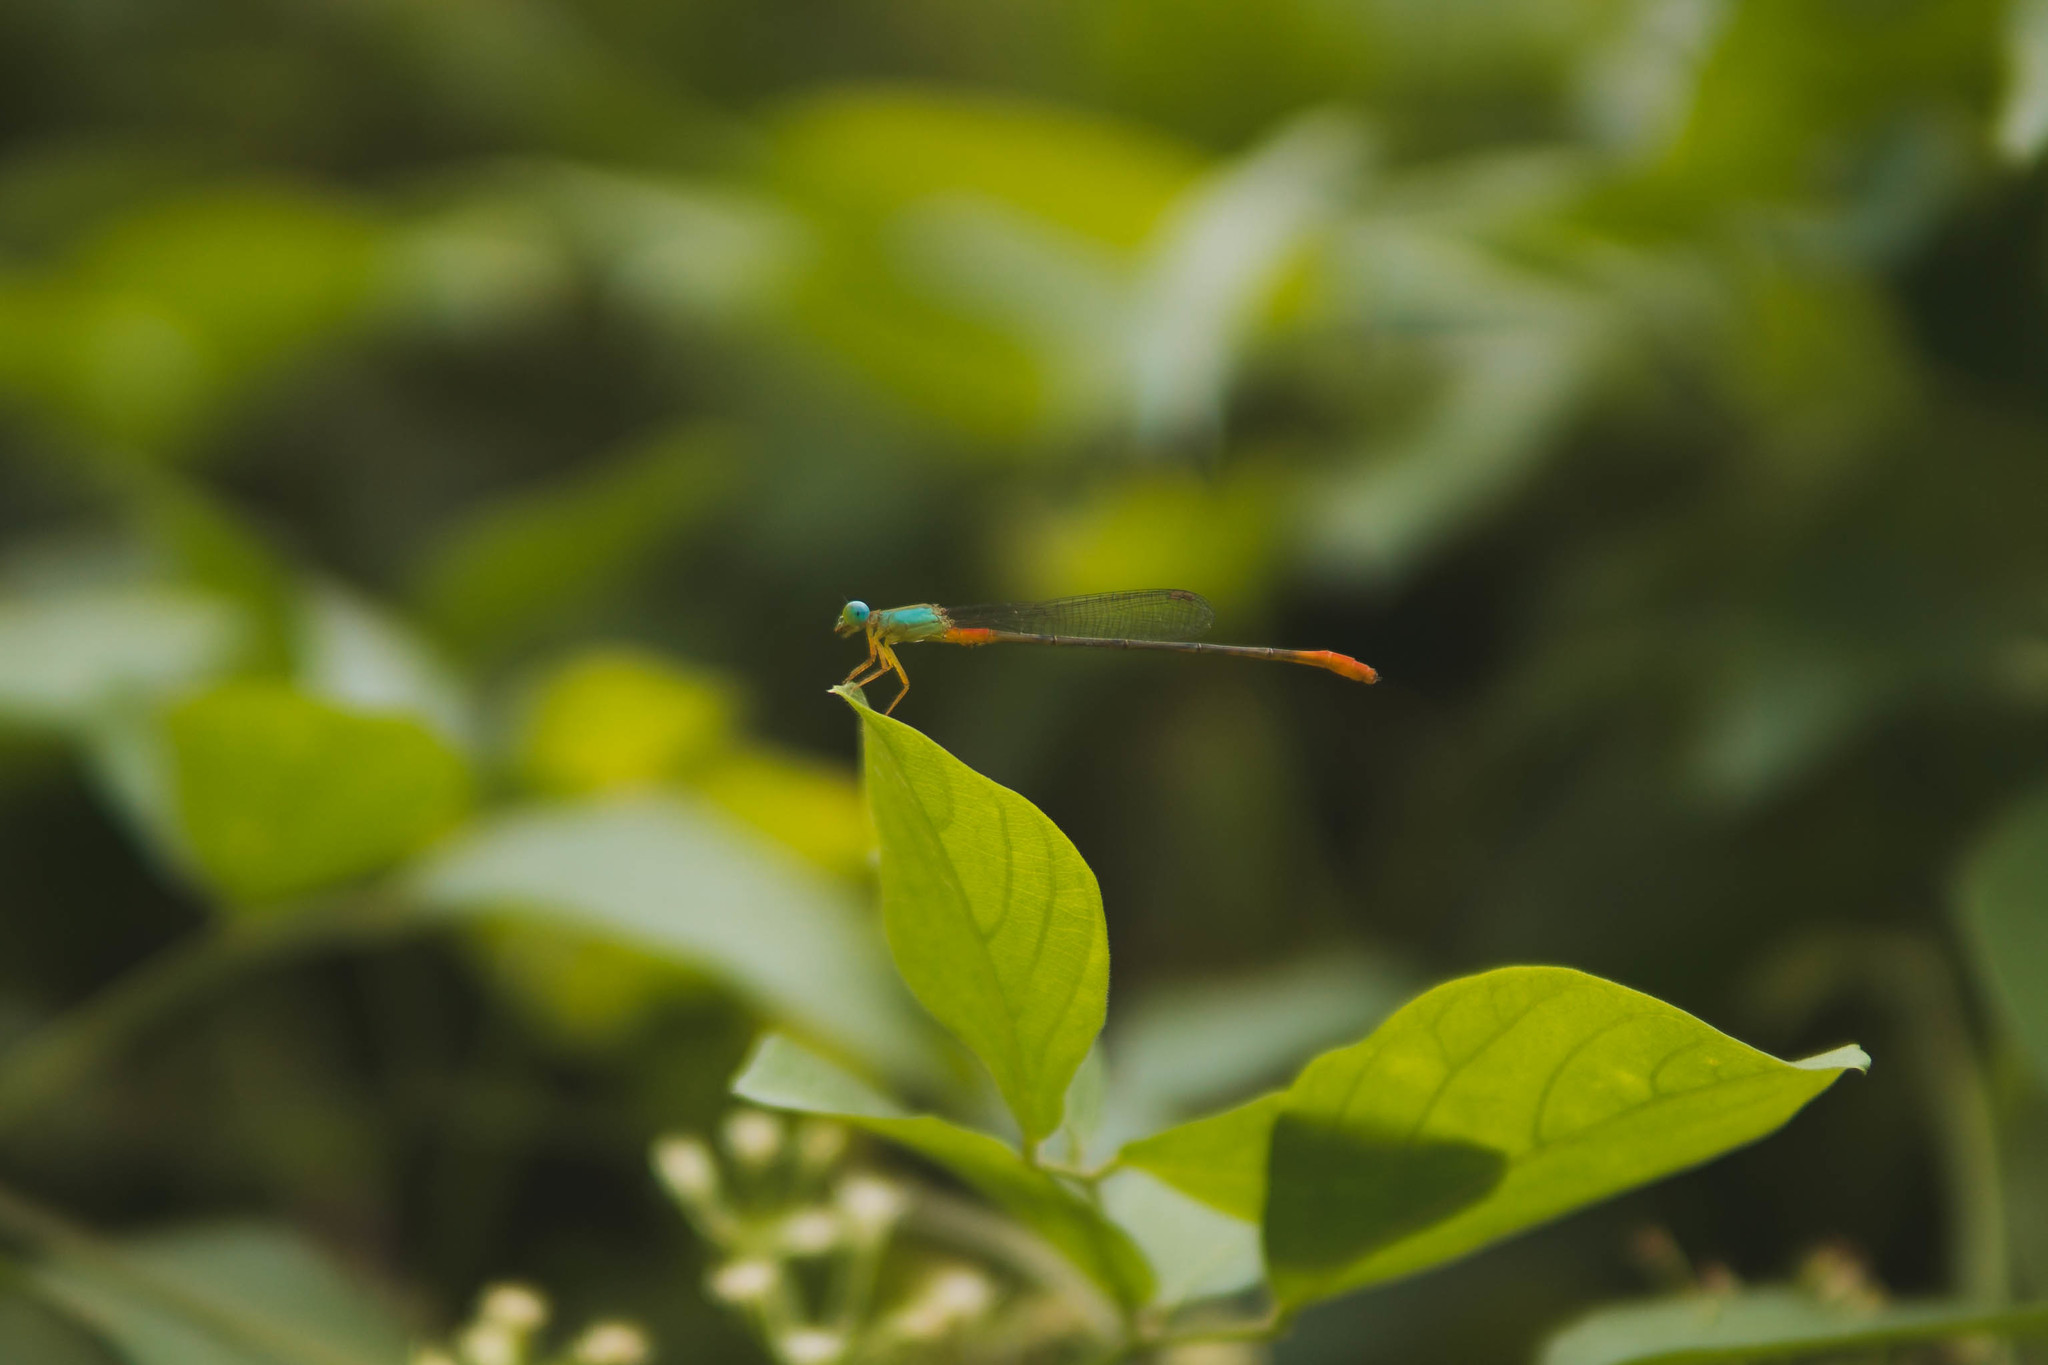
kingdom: Animalia
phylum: Arthropoda
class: Insecta
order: Odonata
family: Coenagrionidae
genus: Ceriagrion
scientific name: Ceriagrion cerinorubellum
